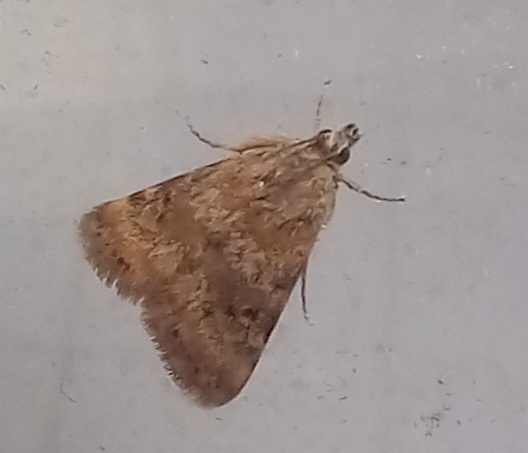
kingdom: Animalia
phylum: Arthropoda
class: Insecta
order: Lepidoptera
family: Crambidae
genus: Noctuelia
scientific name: Noctuelia Aporodes floralis
